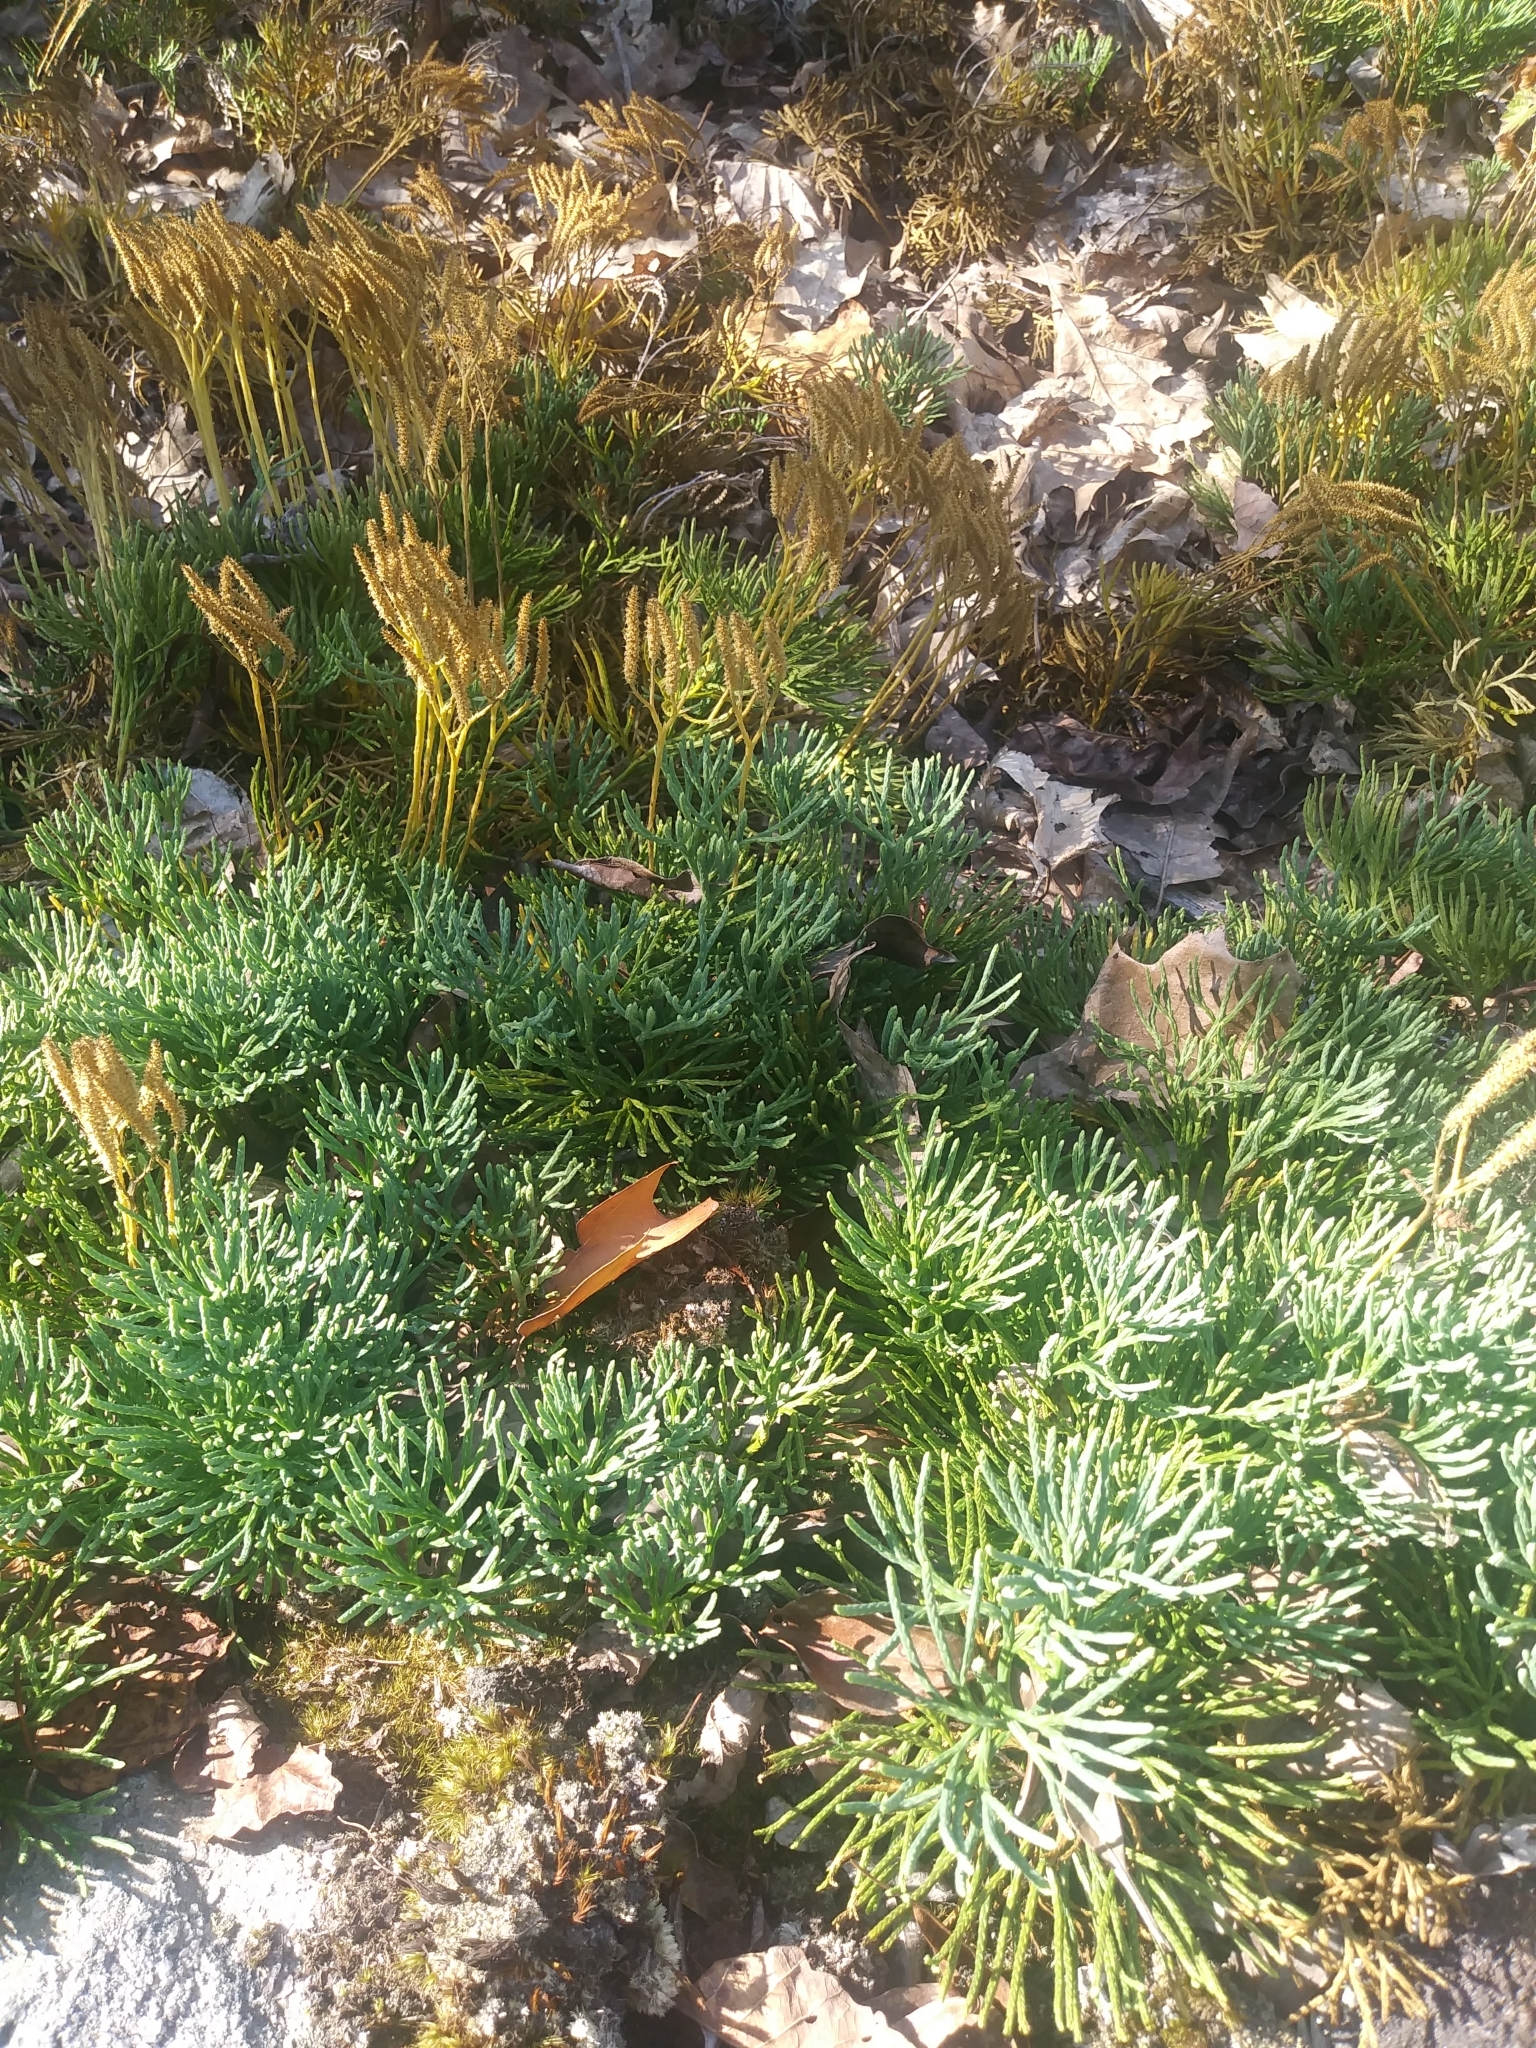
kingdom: Plantae
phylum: Tracheophyta
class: Lycopodiopsida
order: Lycopodiales
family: Lycopodiaceae
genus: Diphasiastrum
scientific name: Diphasiastrum tristachyum
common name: Blue ground-cedar
